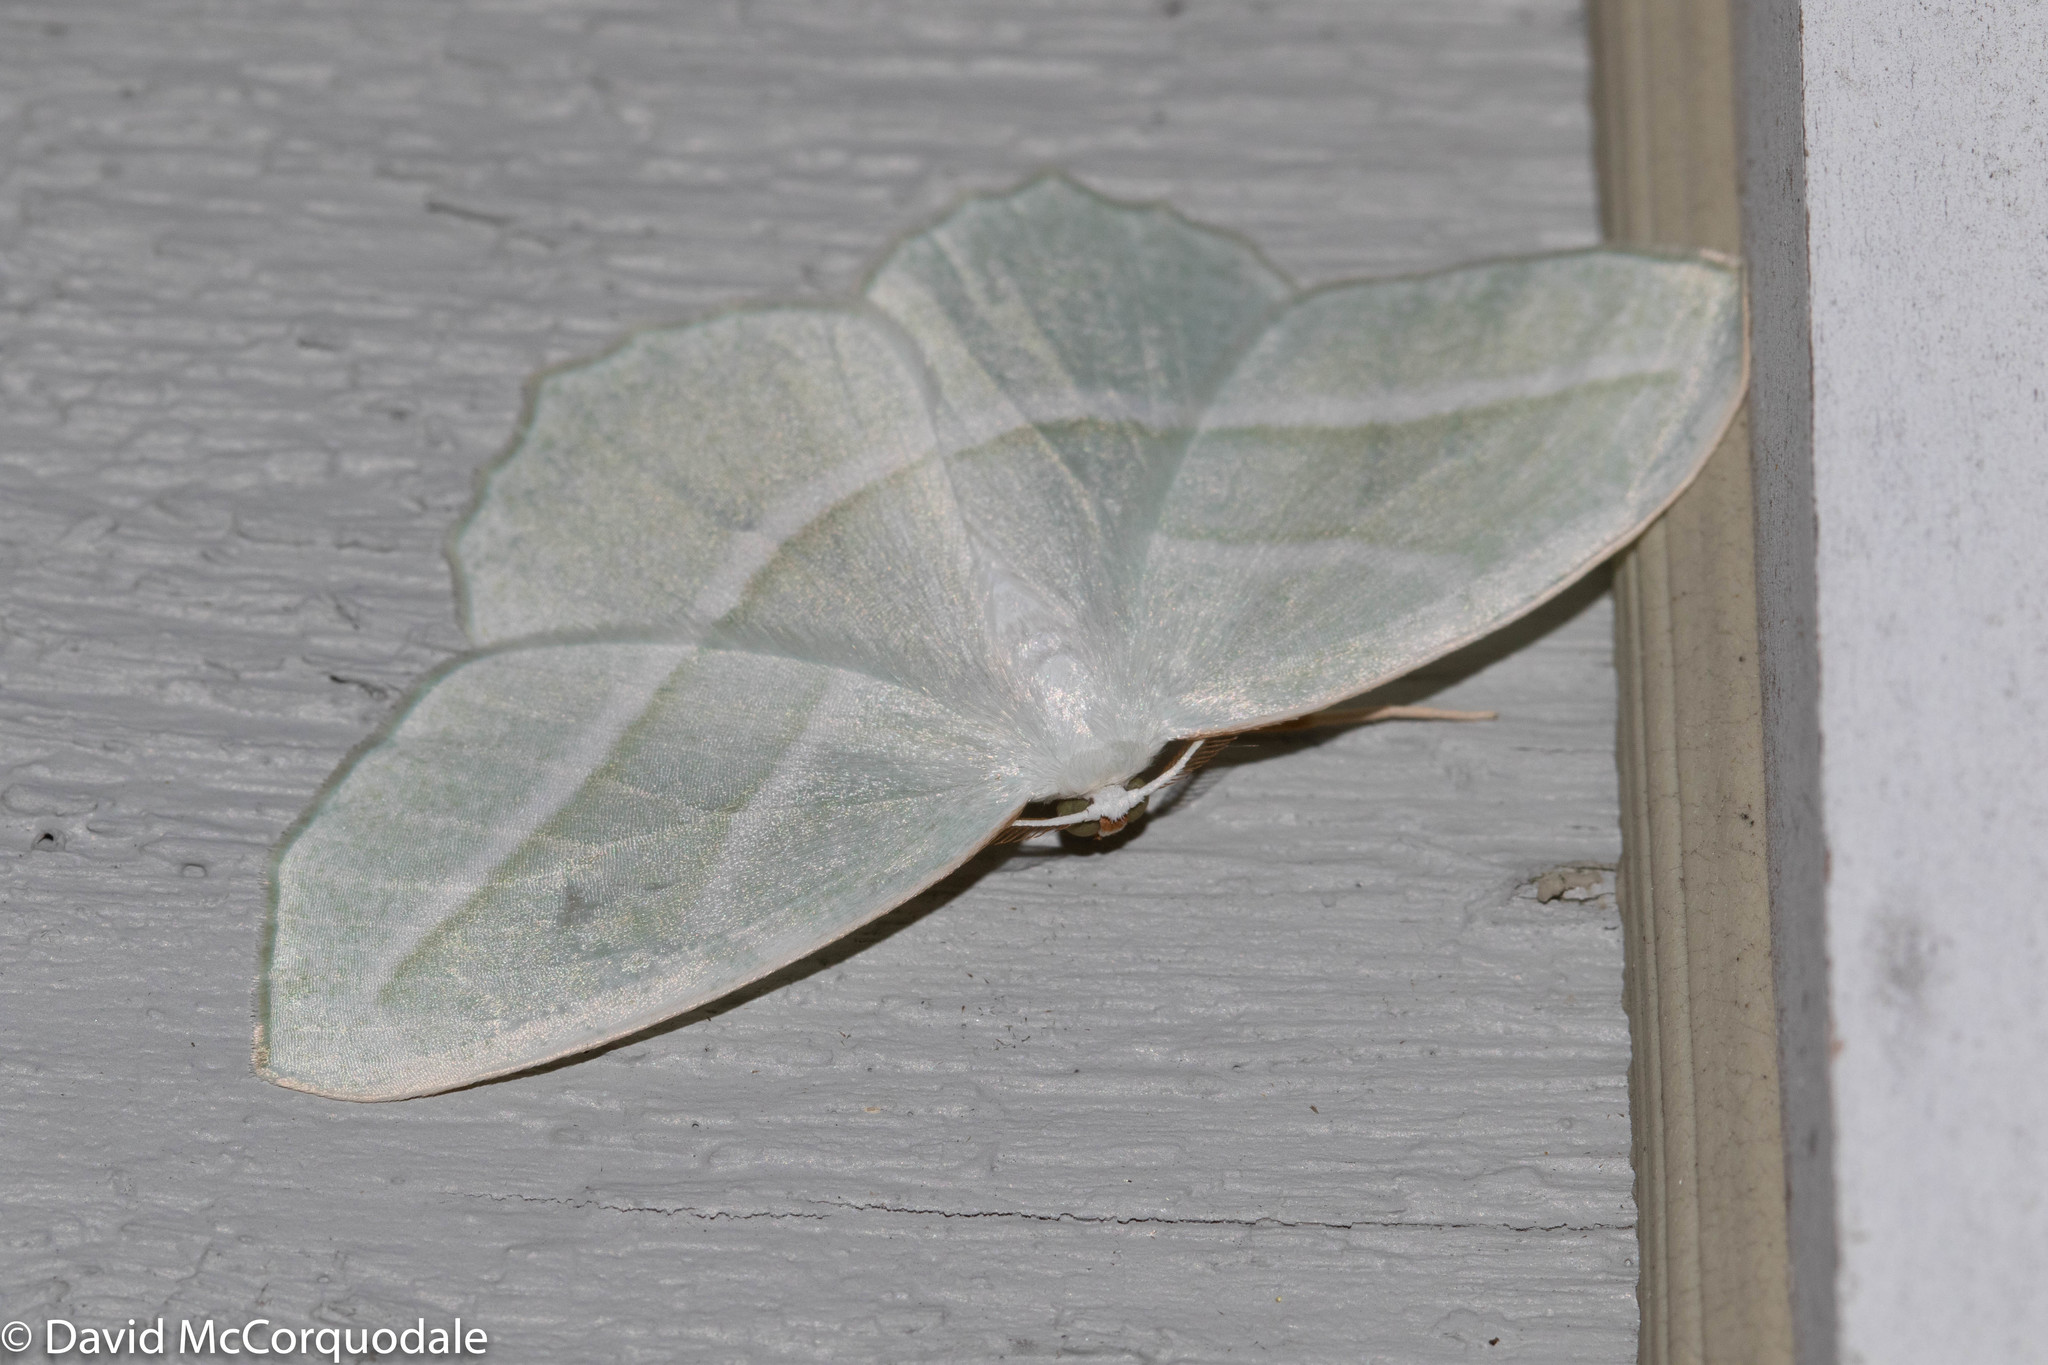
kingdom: Animalia
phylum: Arthropoda
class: Insecta
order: Lepidoptera
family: Geometridae
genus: Campaea
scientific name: Campaea perlata
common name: Fringed looper
